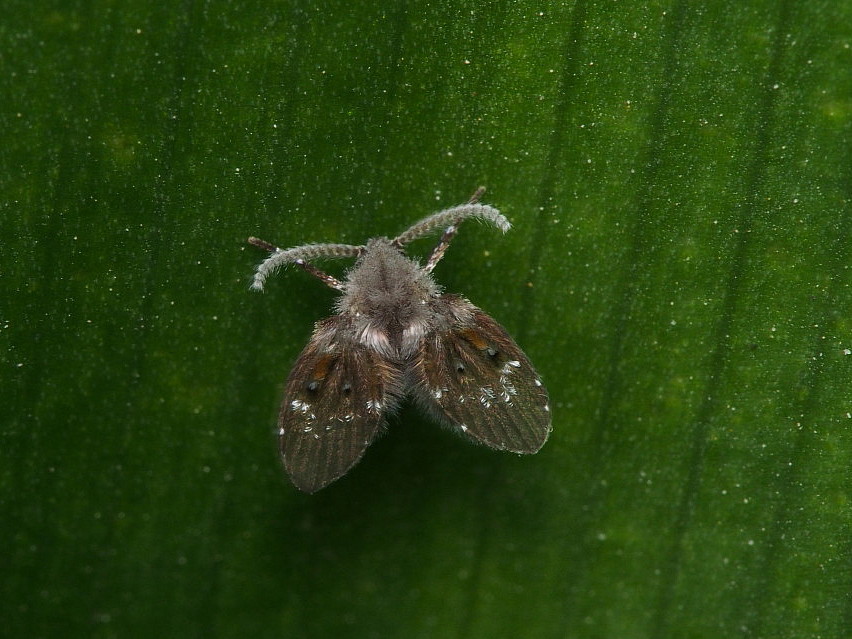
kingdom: Animalia
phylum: Arthropoda
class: Insecta
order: Diptera
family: Psychodidae
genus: Clogmia
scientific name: Clogmia albipunctatus
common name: White-spotted moth fly
